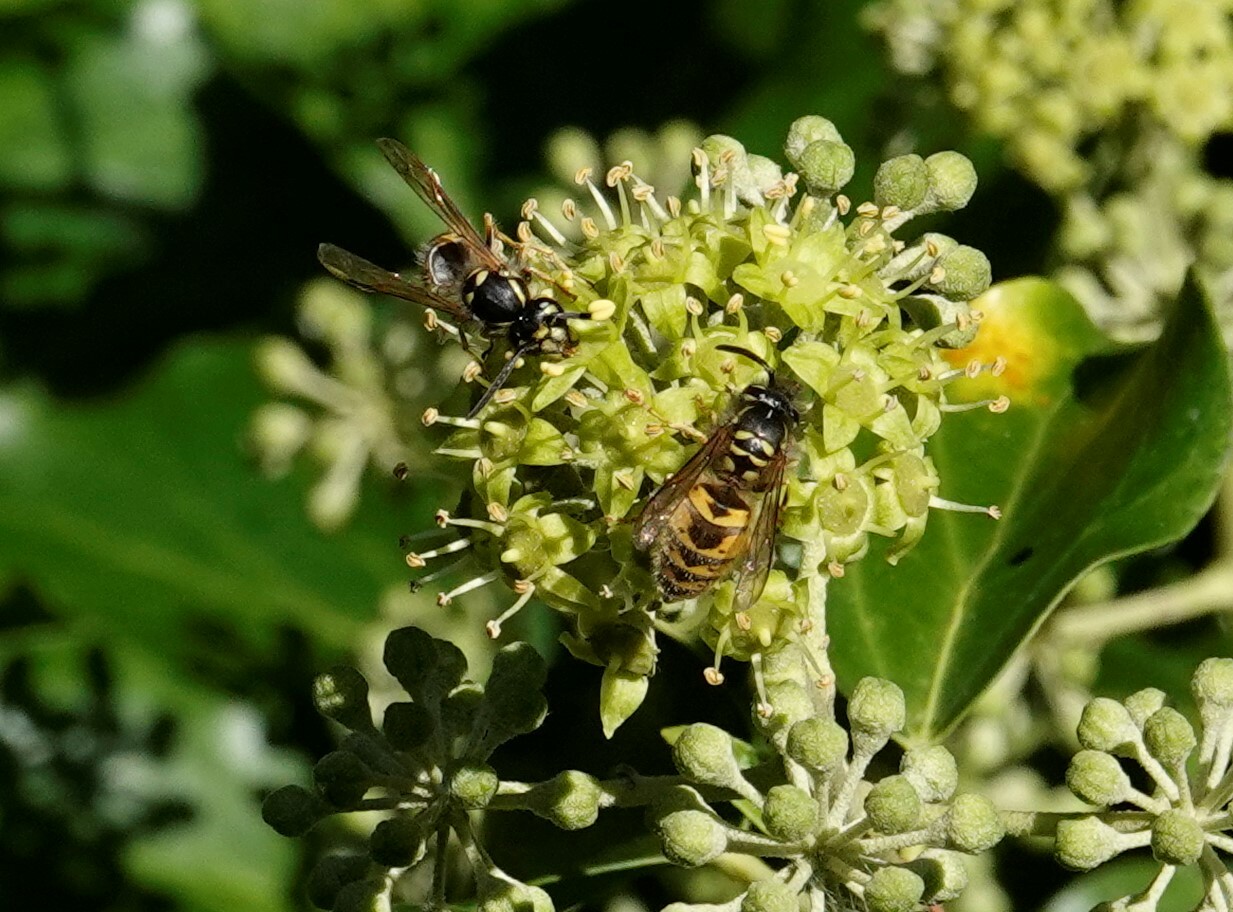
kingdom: Animalia
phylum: Arthropoda
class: Insecta
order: Hymenoptera
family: Vespidae
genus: Vespula
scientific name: Vespula vulgaris
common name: Common wasp
